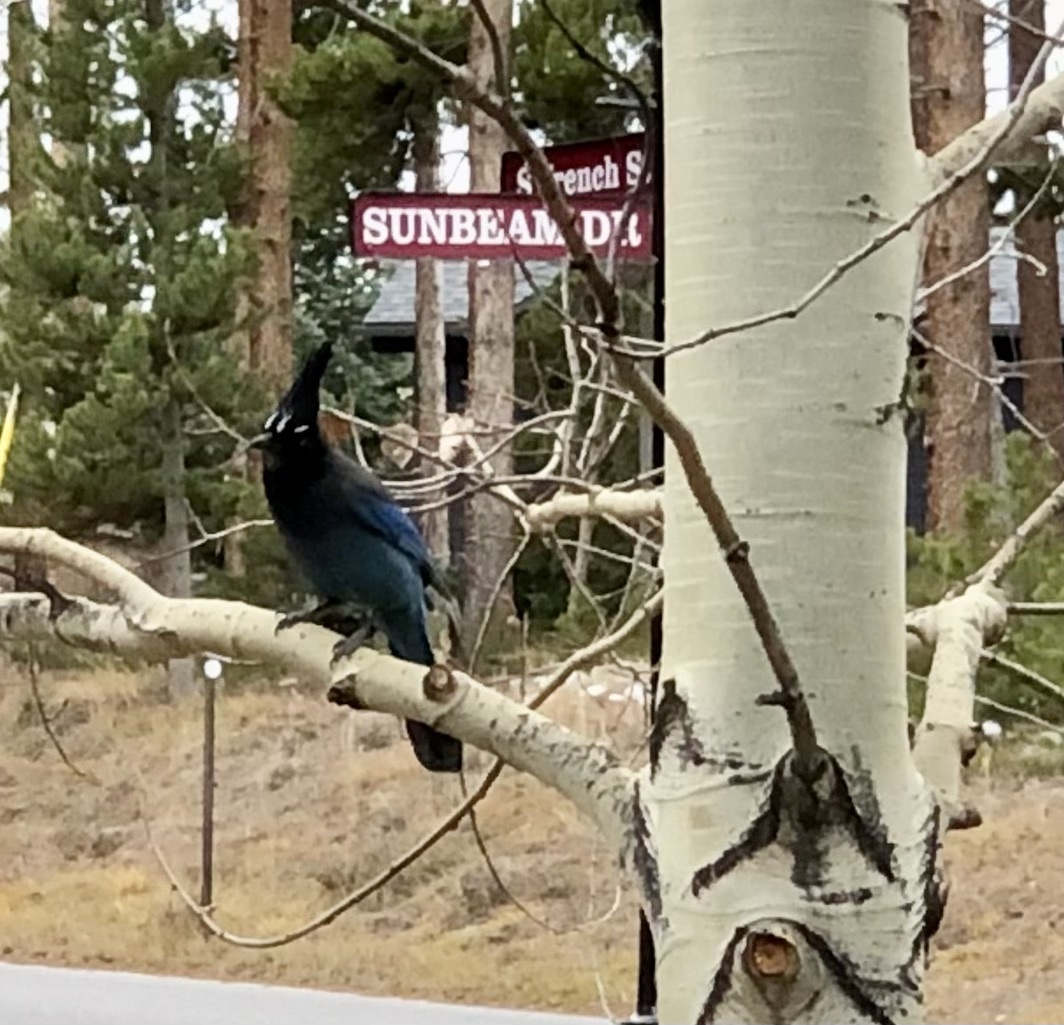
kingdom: Animalia
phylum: Chordata
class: Aves
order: Passeriformes
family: Corvidae
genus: Cyanocitta
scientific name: Cyanocitta stelleri
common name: Steller's jay
